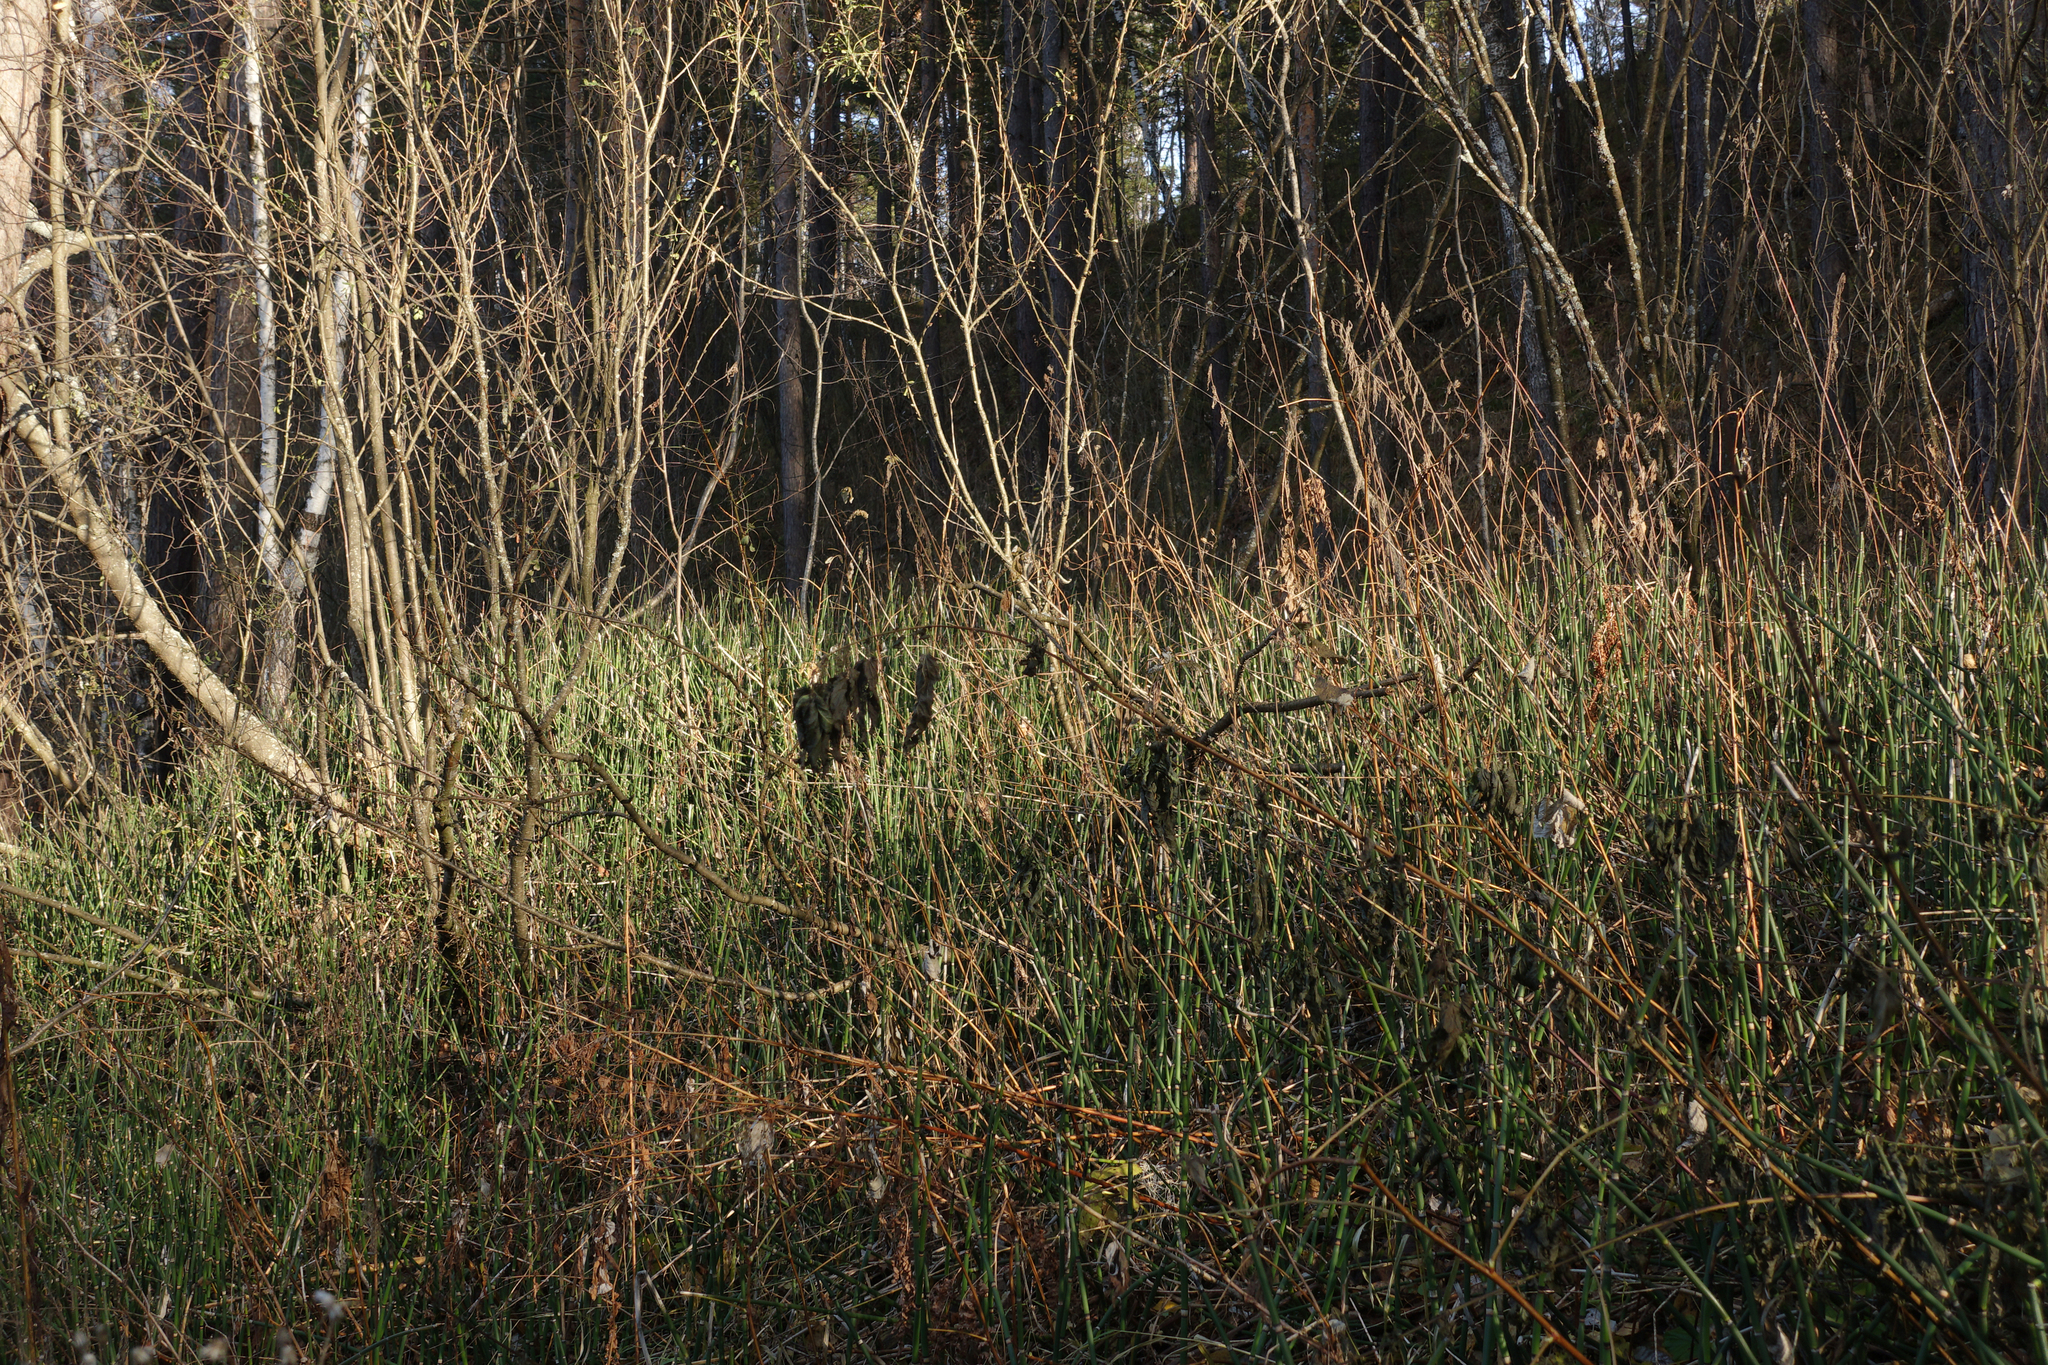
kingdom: Plantae
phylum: Tracheophyta
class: Polypodiopsida
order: Equisetales
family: Equisetaceae
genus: Equisetum
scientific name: Equisetum hyemale
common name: Rough horsetail
